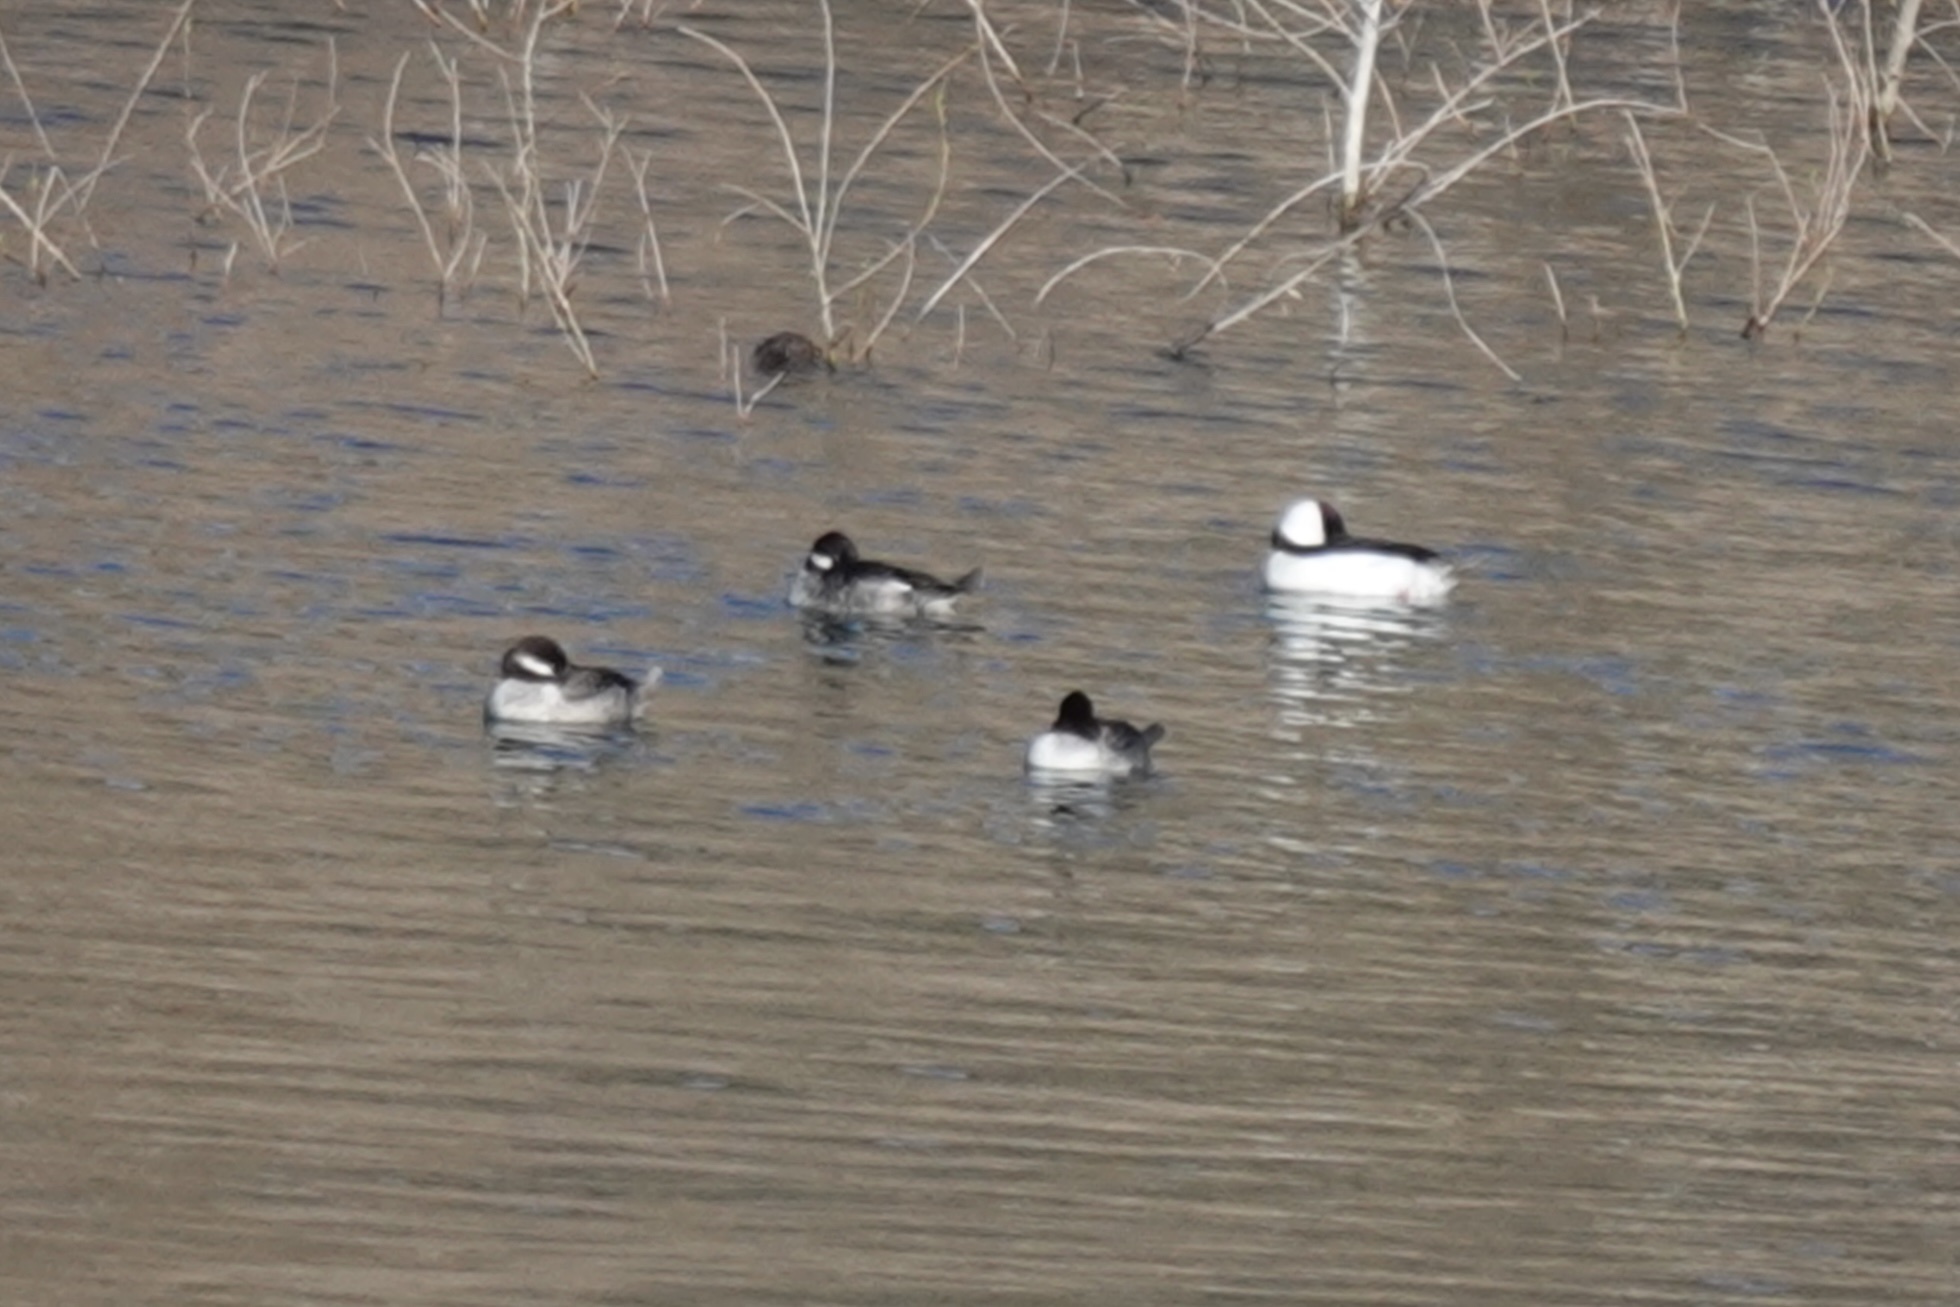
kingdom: Animalia
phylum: Chordata
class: Aves
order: Anseriformes
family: Anatidae
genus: Bucephala
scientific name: Bucephala albeola
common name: Bufflehead
